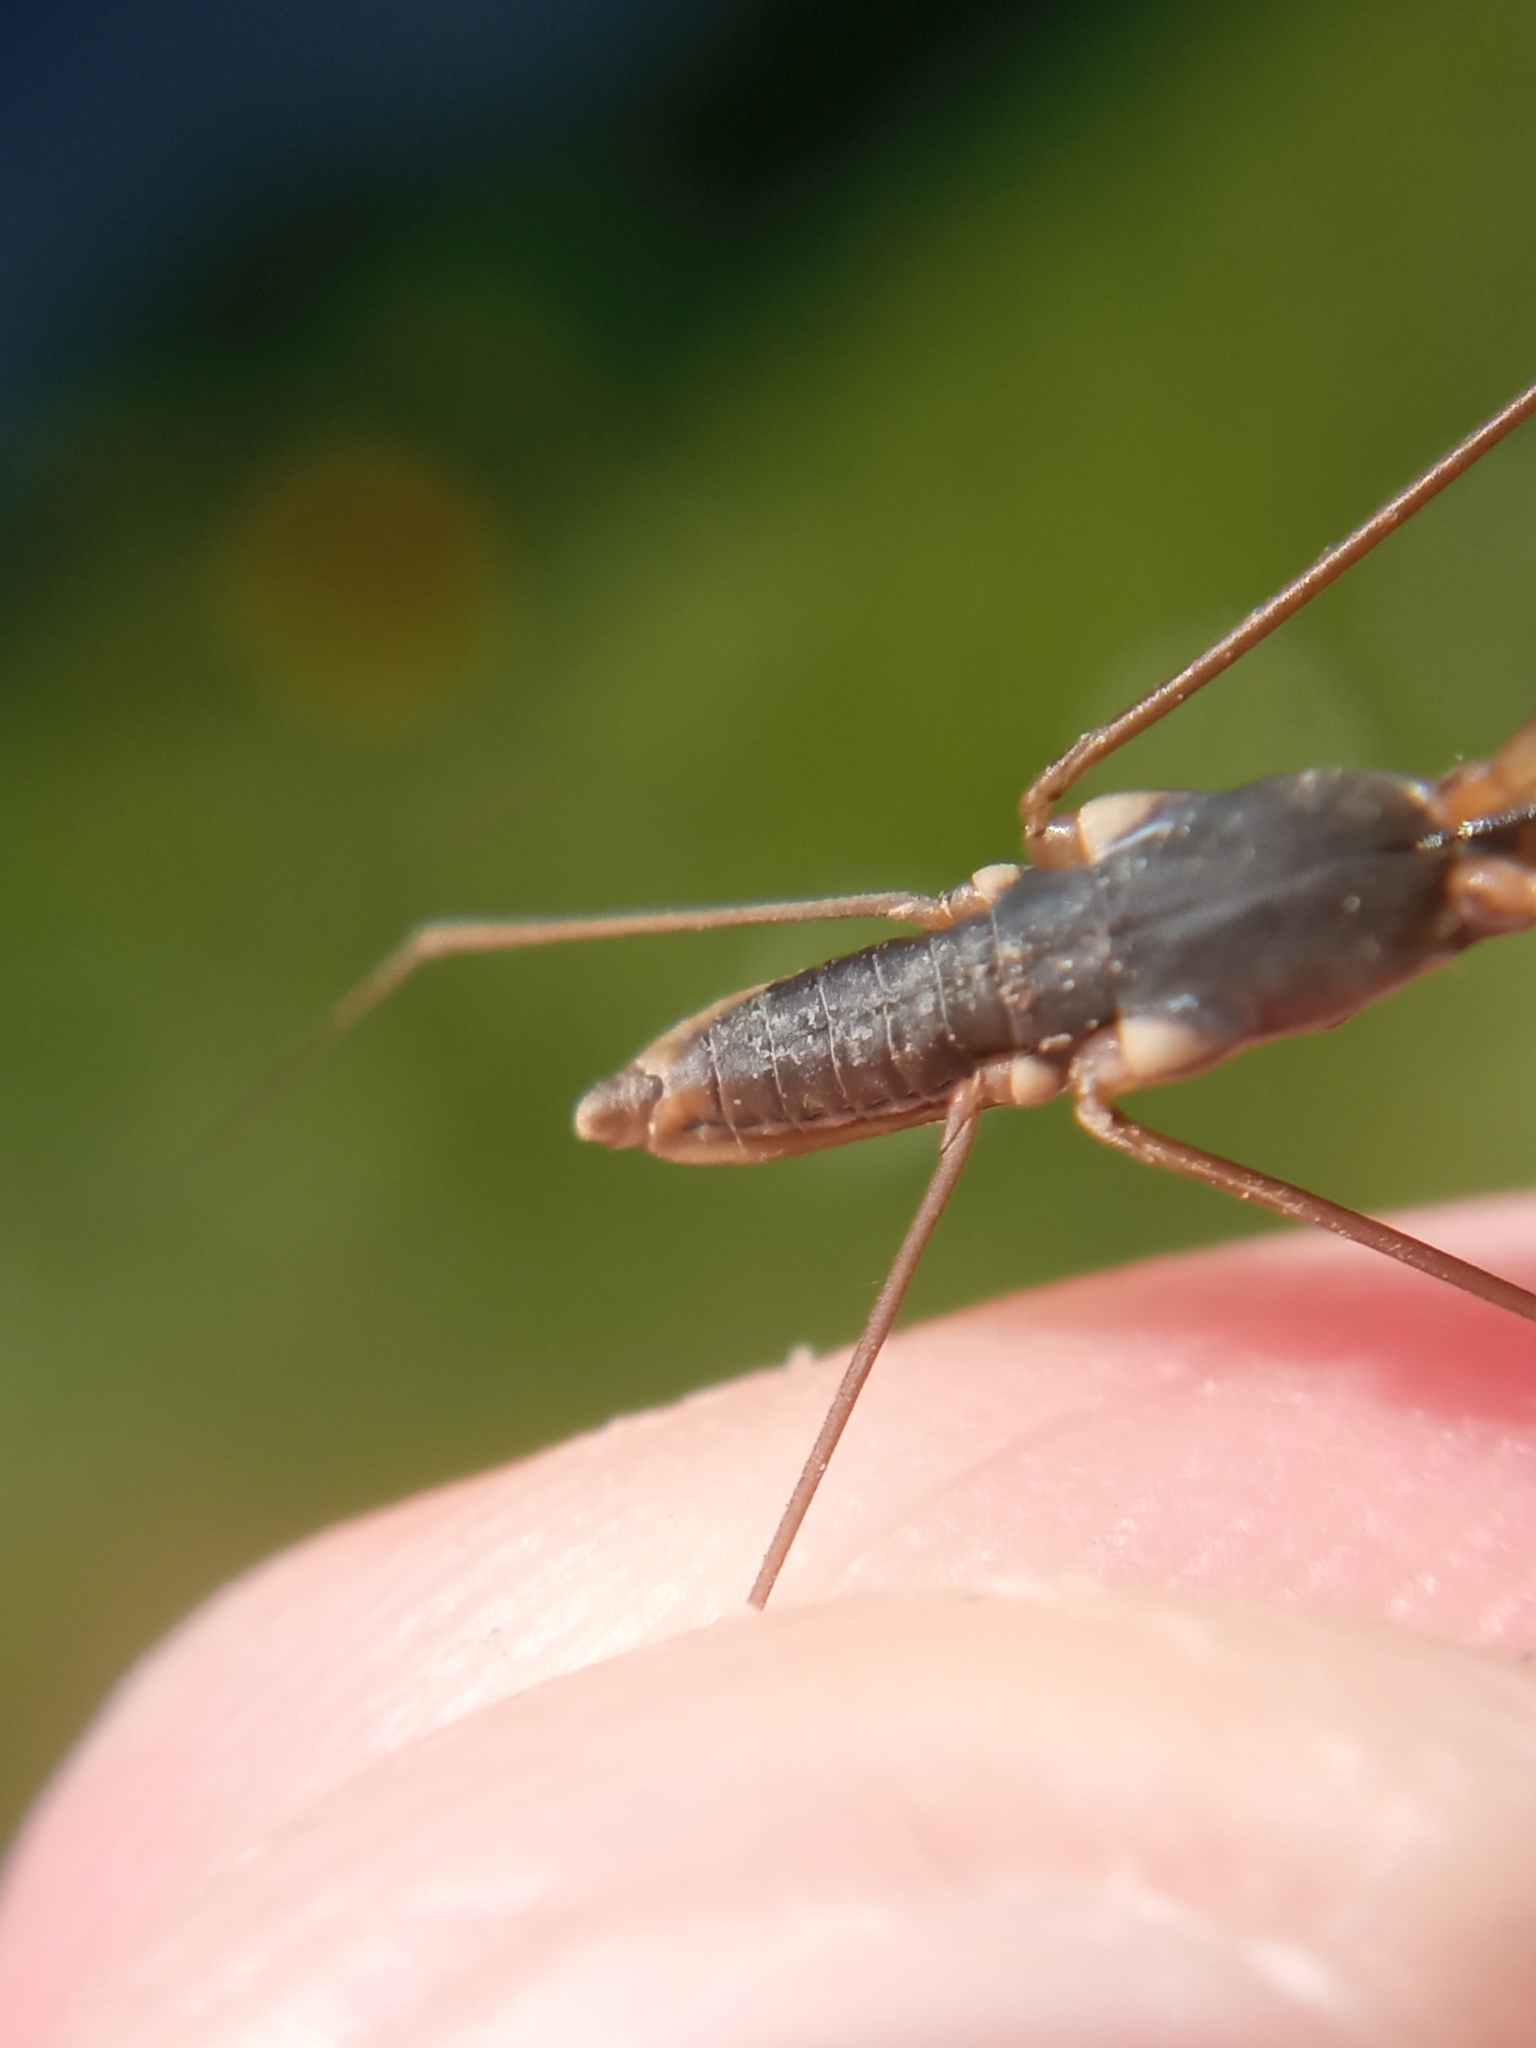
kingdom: Animalia
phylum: Arthropoda
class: Insecta
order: Hemiptera
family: Gerridae
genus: Gerris
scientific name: Gerris lacustris
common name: Common pondskater
